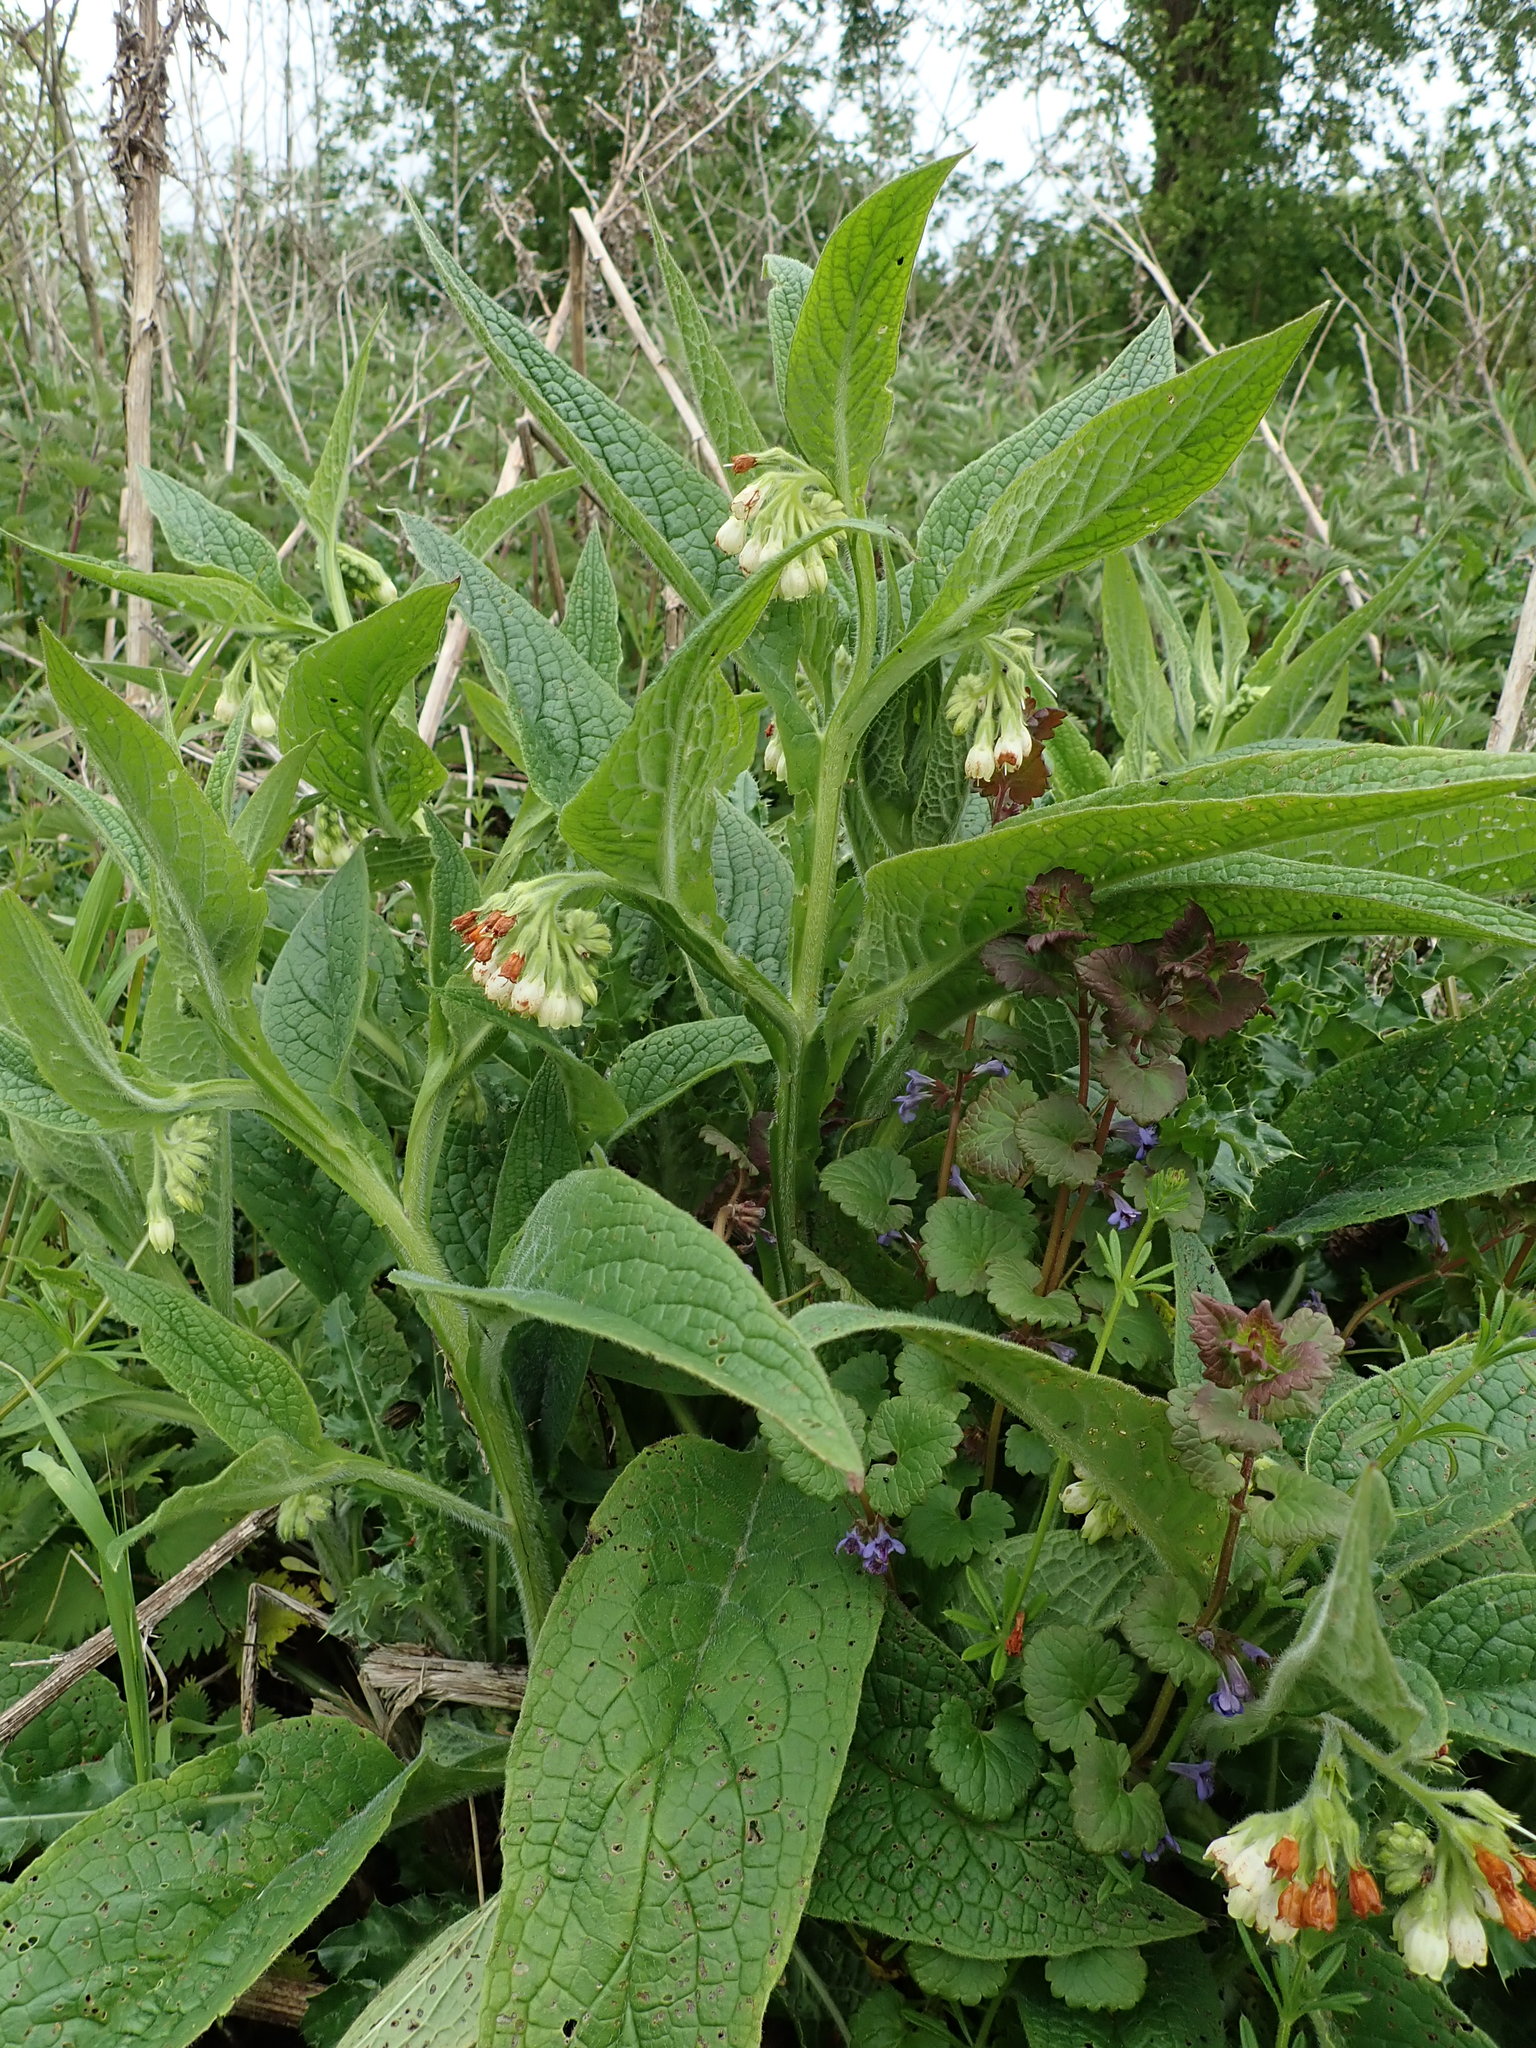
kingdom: Plantae
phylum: Tracheophyta
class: Magnoliopsida
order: Boraginales
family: Boraginaceae
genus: Symphytum
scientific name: Symphytum officinale
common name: Common comfrey
